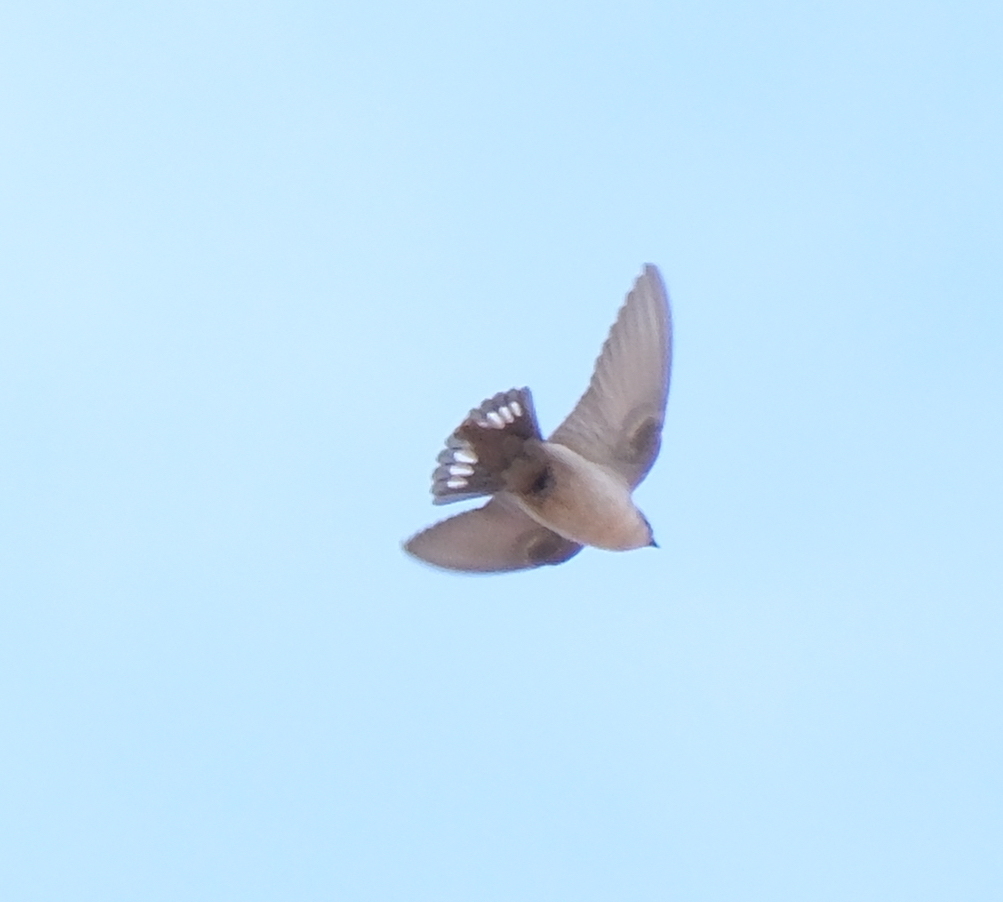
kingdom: Animalia
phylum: Chordata
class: Aves
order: Passeriformes
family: Hirundinidae
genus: Ptyonoprogne
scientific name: Ptyonoprogne fuligula
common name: Rock martin
